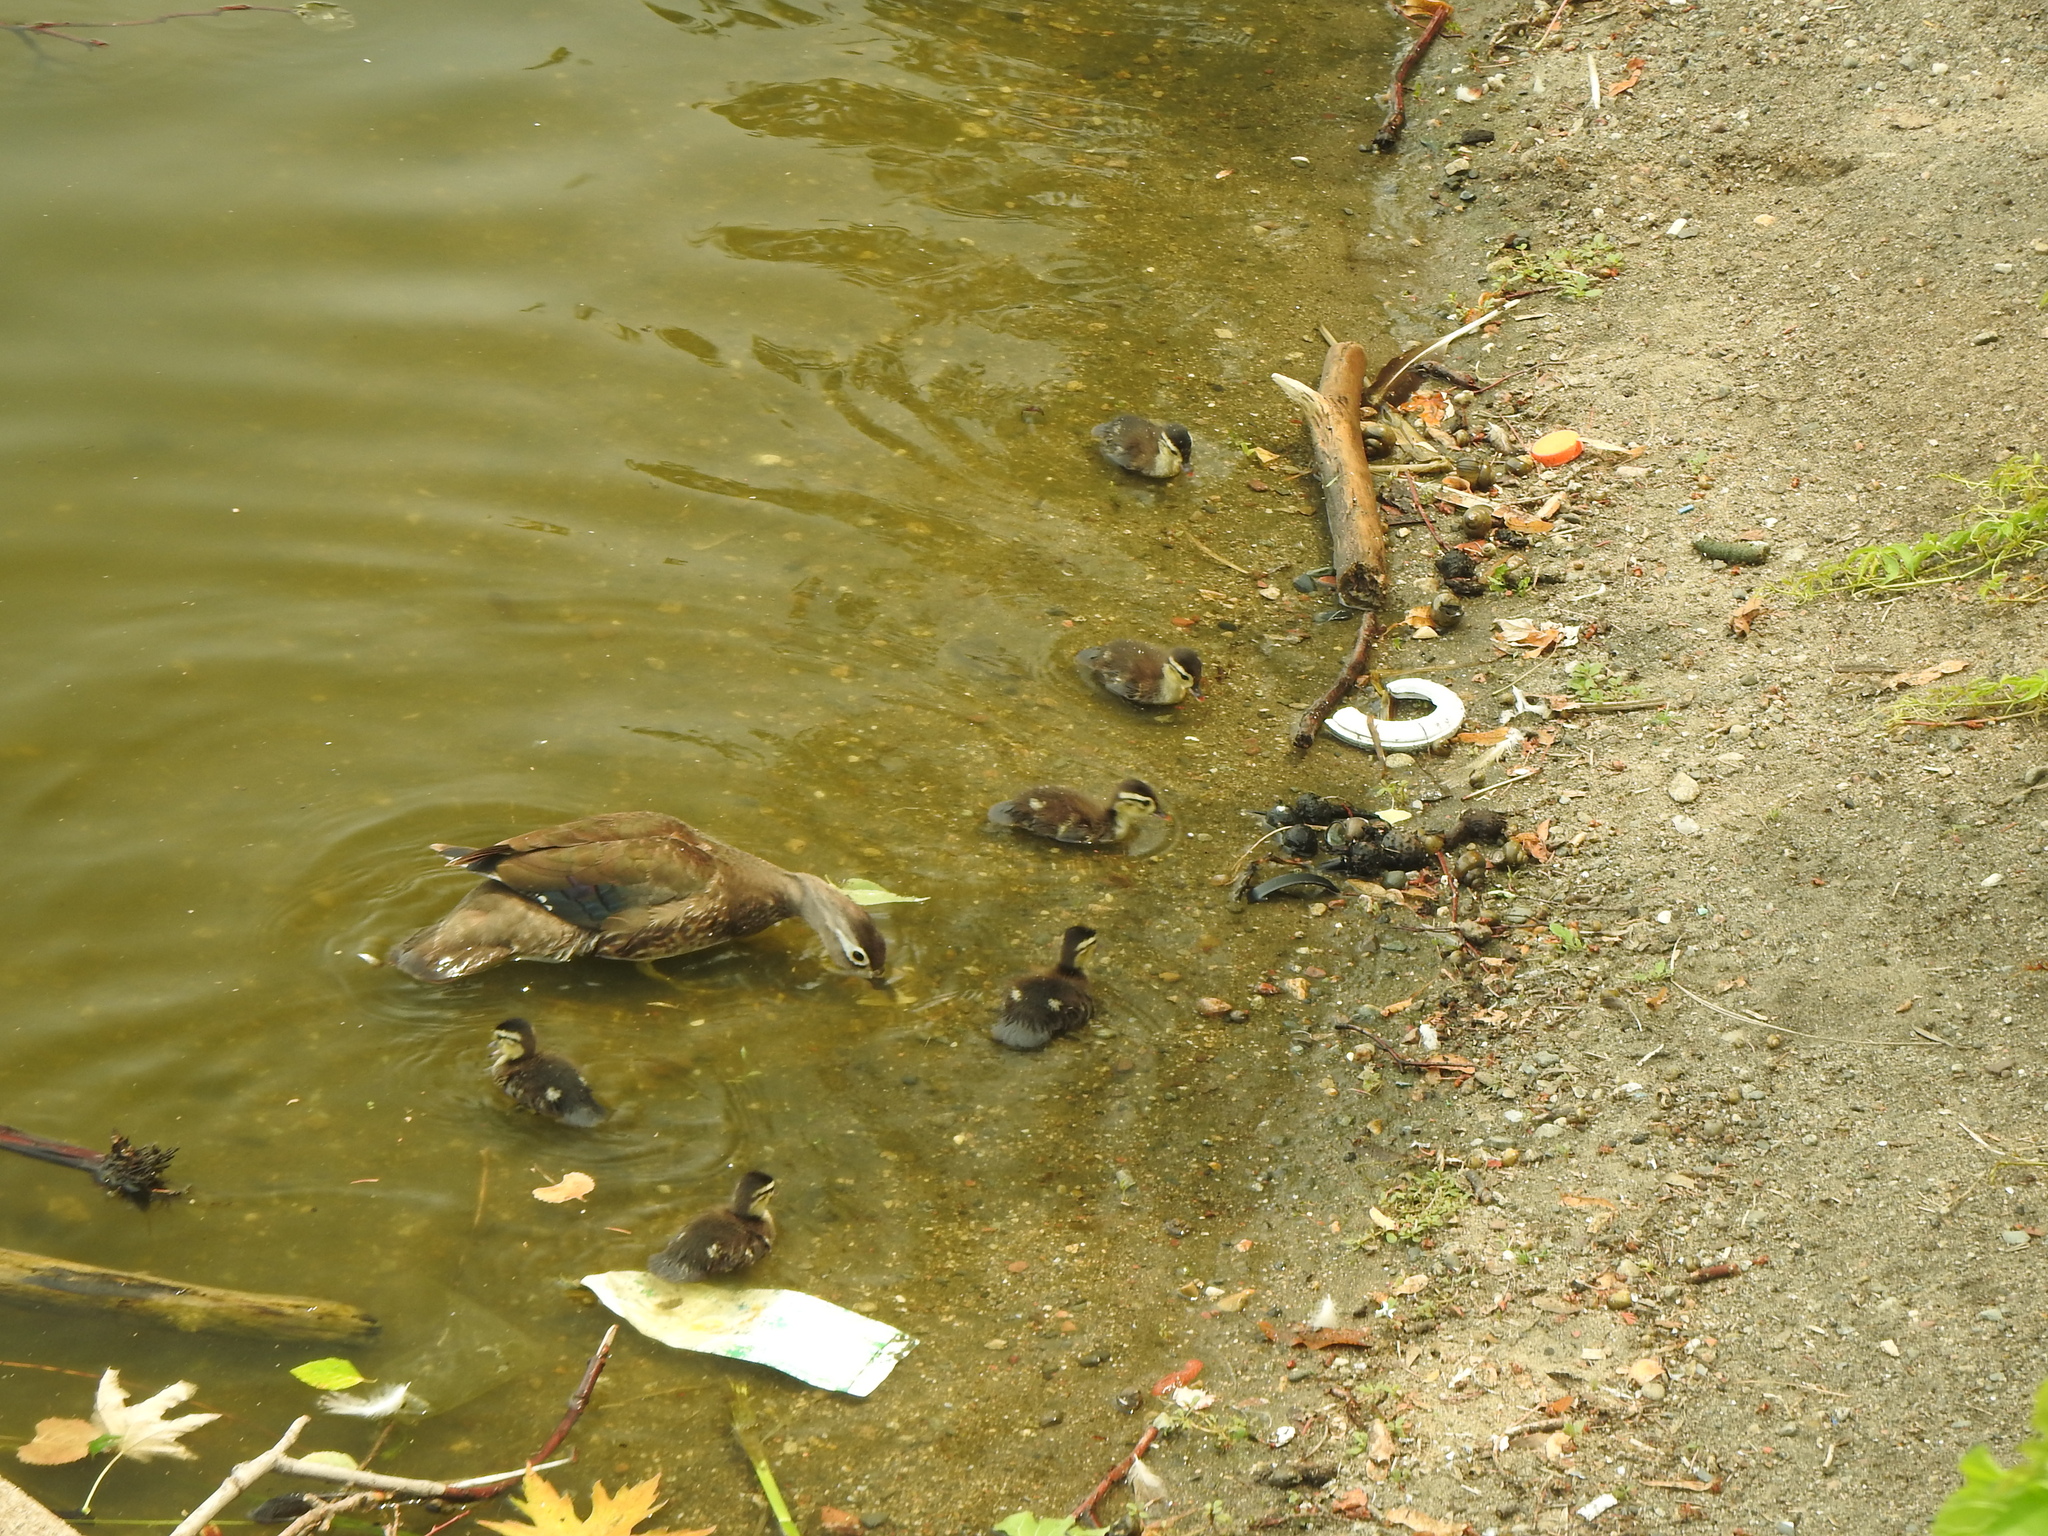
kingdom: Animalia
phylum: Chordata
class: Aves
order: Anseriformes
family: Anatidae
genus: Aix
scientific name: Aix sponsa
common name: Wood duck
